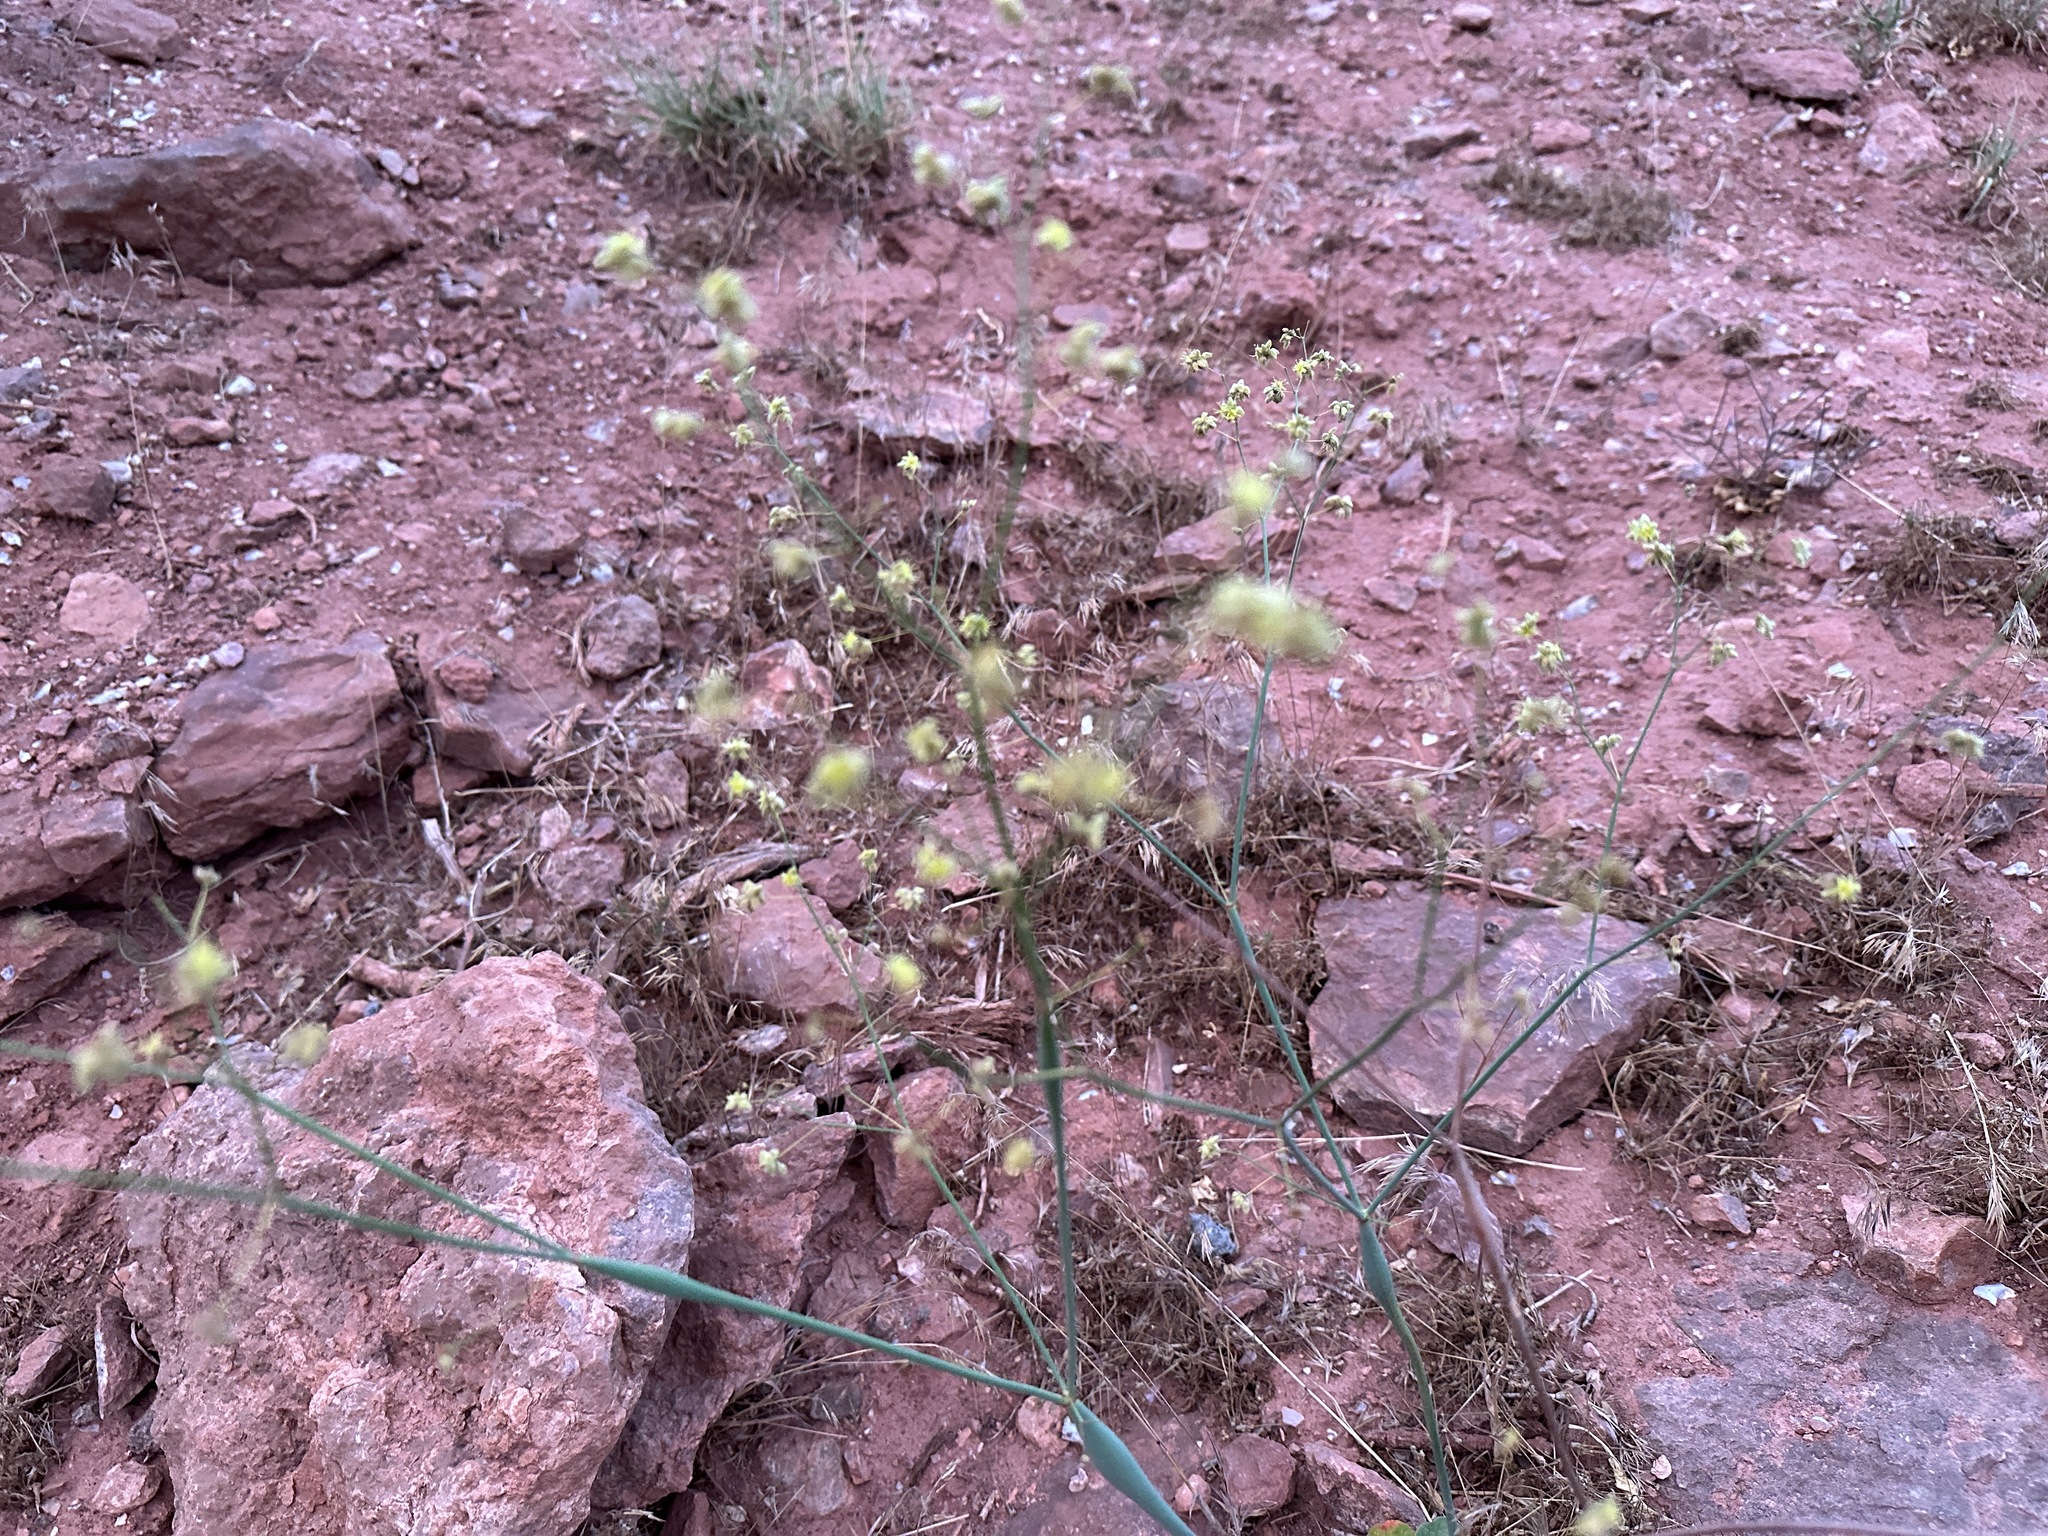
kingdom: Plantae
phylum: Tracheophyta
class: Magnoliopsida
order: Caryophyllales
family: Polygonaceae
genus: Eriogonum
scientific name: Eriogonum inflatum
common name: Desert trumpet
